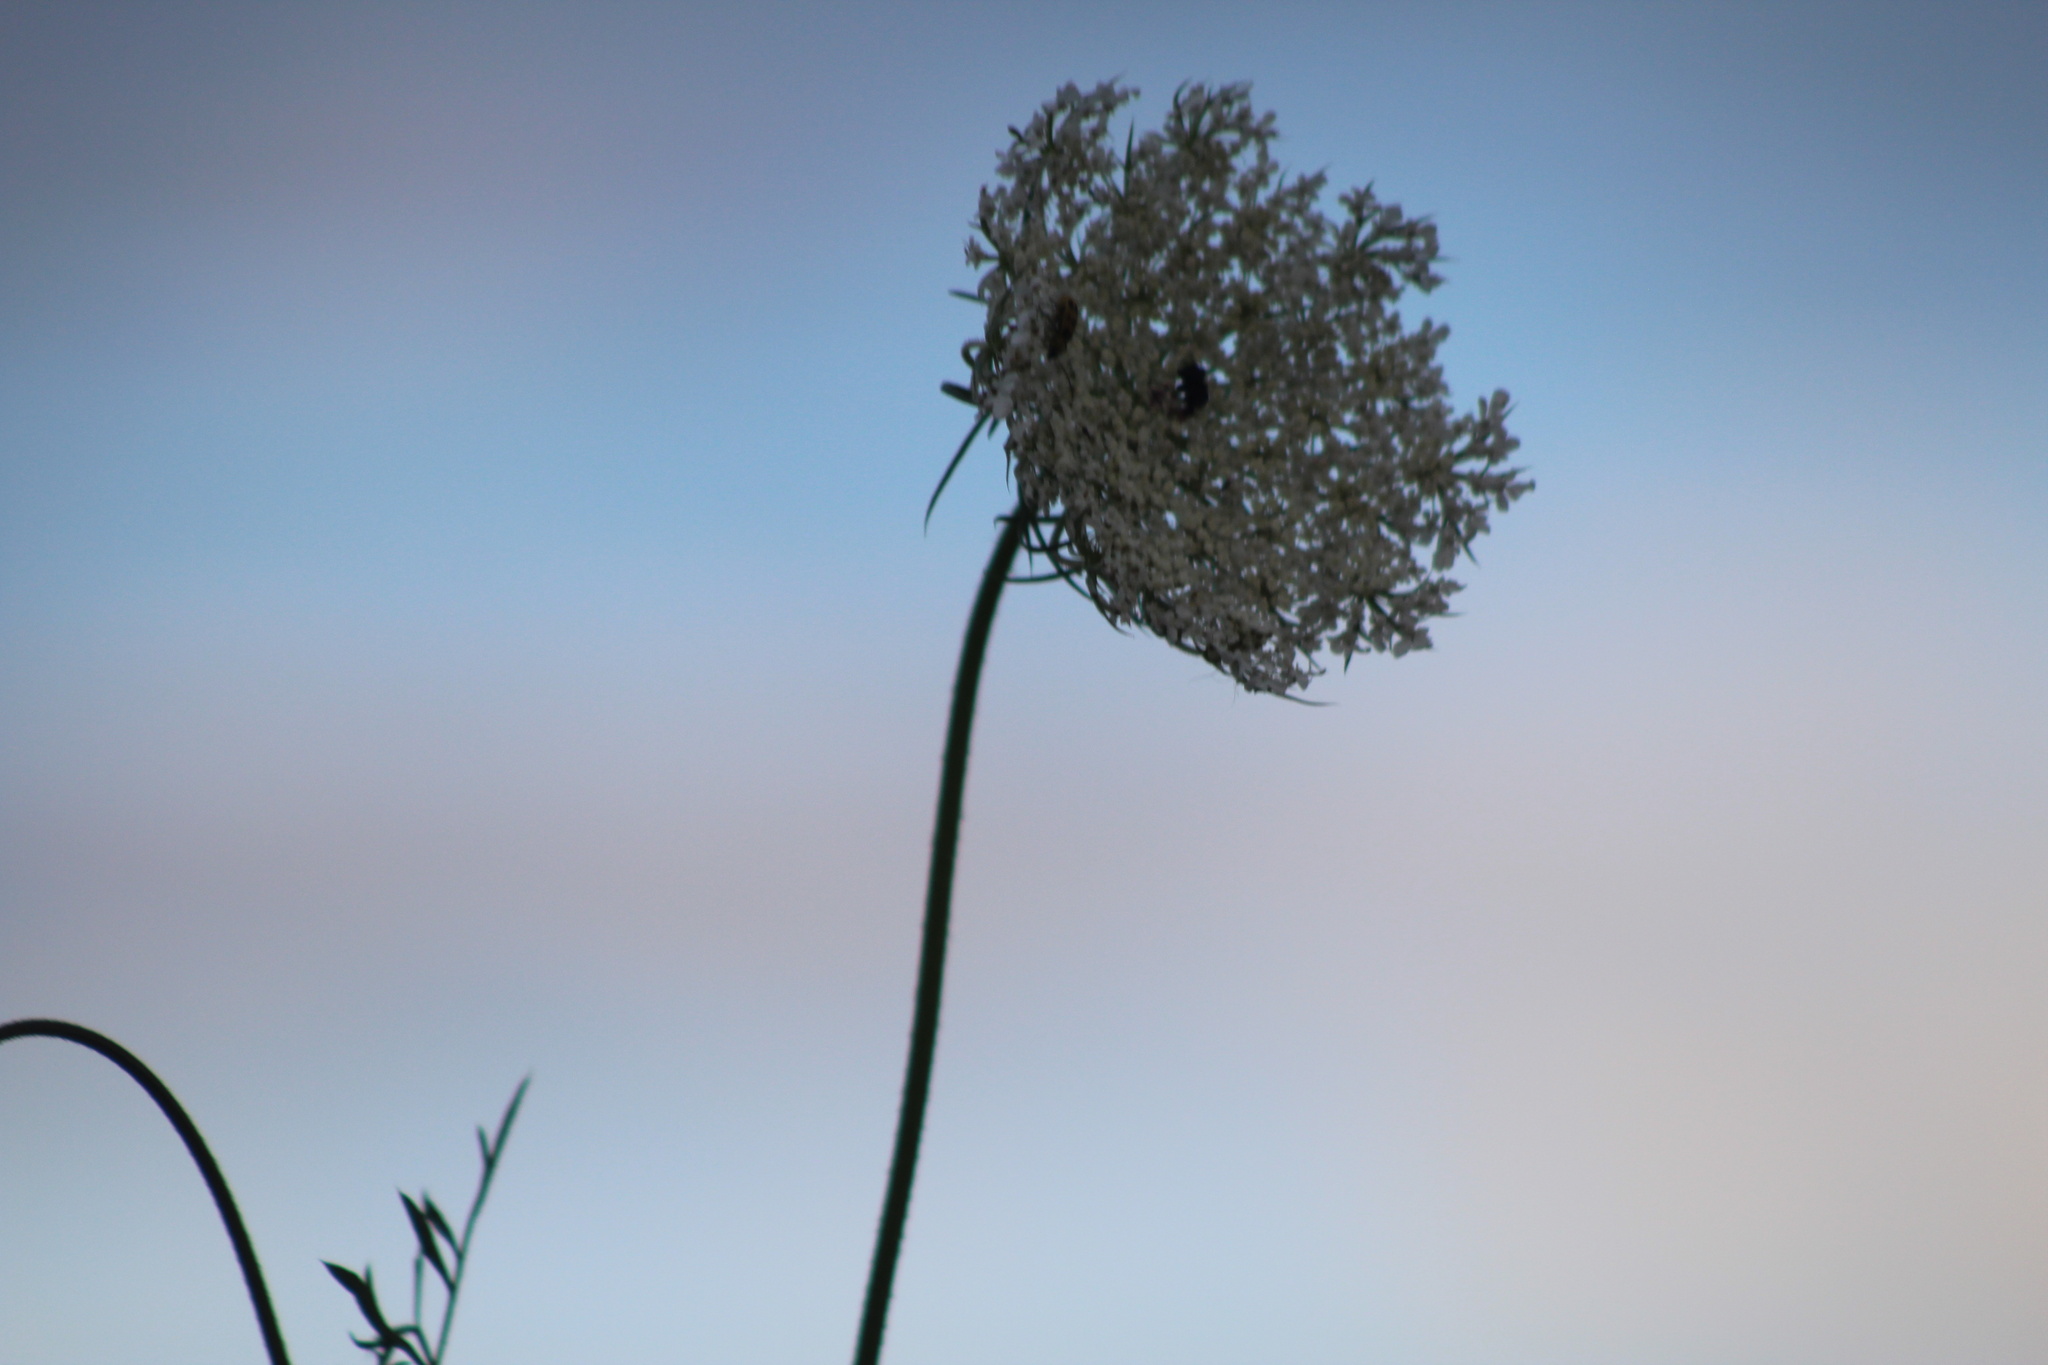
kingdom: Plantae
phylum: Tracheophyta
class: Magnoliopsida
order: Apiales
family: Apiaceae
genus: Daucus
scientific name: Daucus carota
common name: Wild carrot
